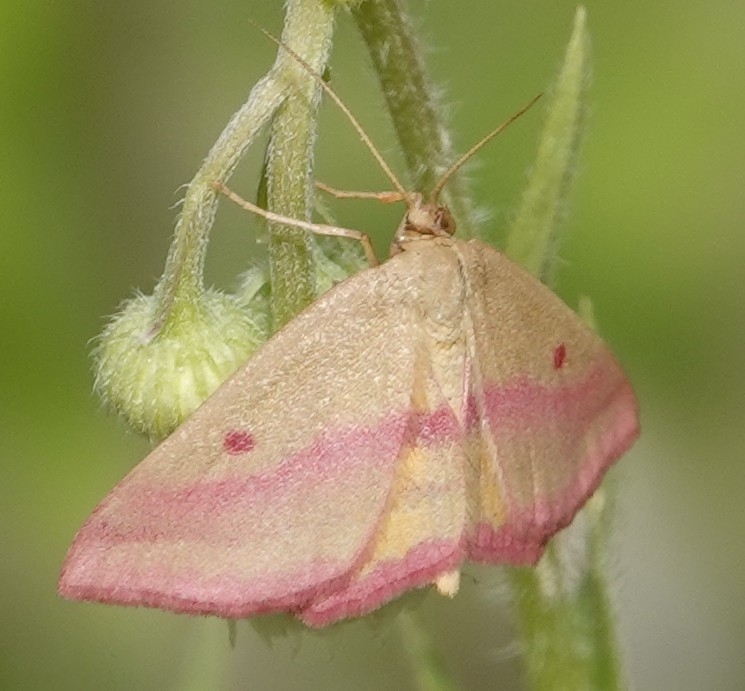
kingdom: Animalia
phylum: Arthropoda
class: Insecta
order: Lepidoptera
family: Geometridae
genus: Haematopis
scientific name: Haematopis grataria
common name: Chickweed geometer
